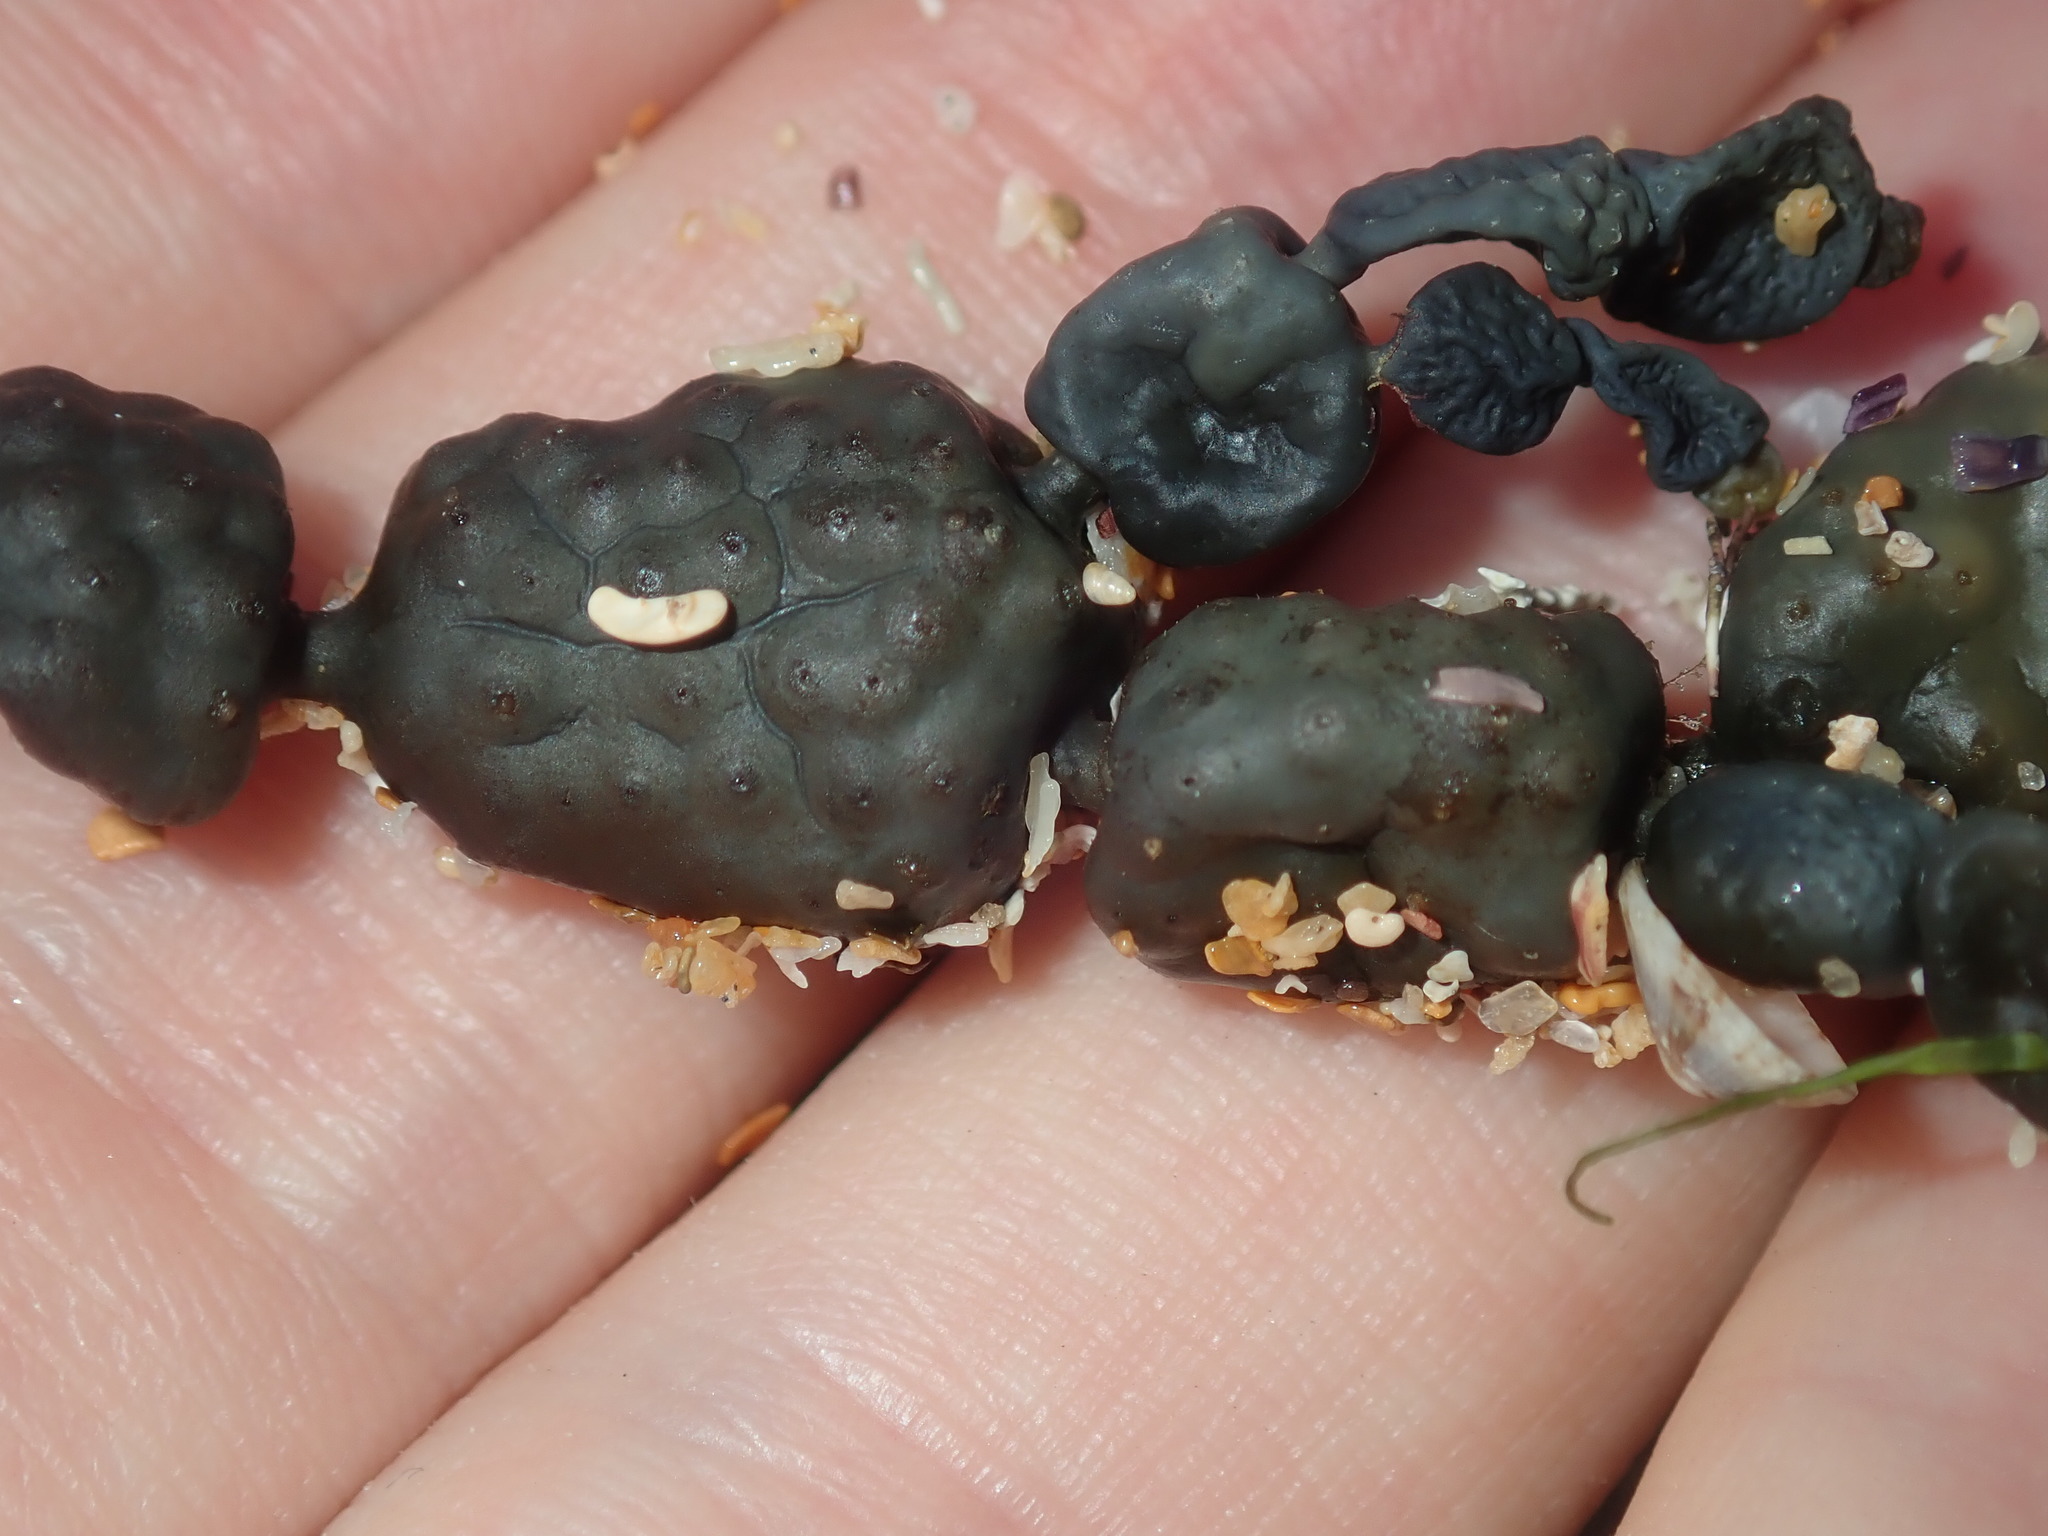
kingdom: Chromista
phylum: Ochrophyta
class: Phaeophyceae
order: Fucales
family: Hormosiraceae
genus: Hormosira
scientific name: Hormosira banksii
